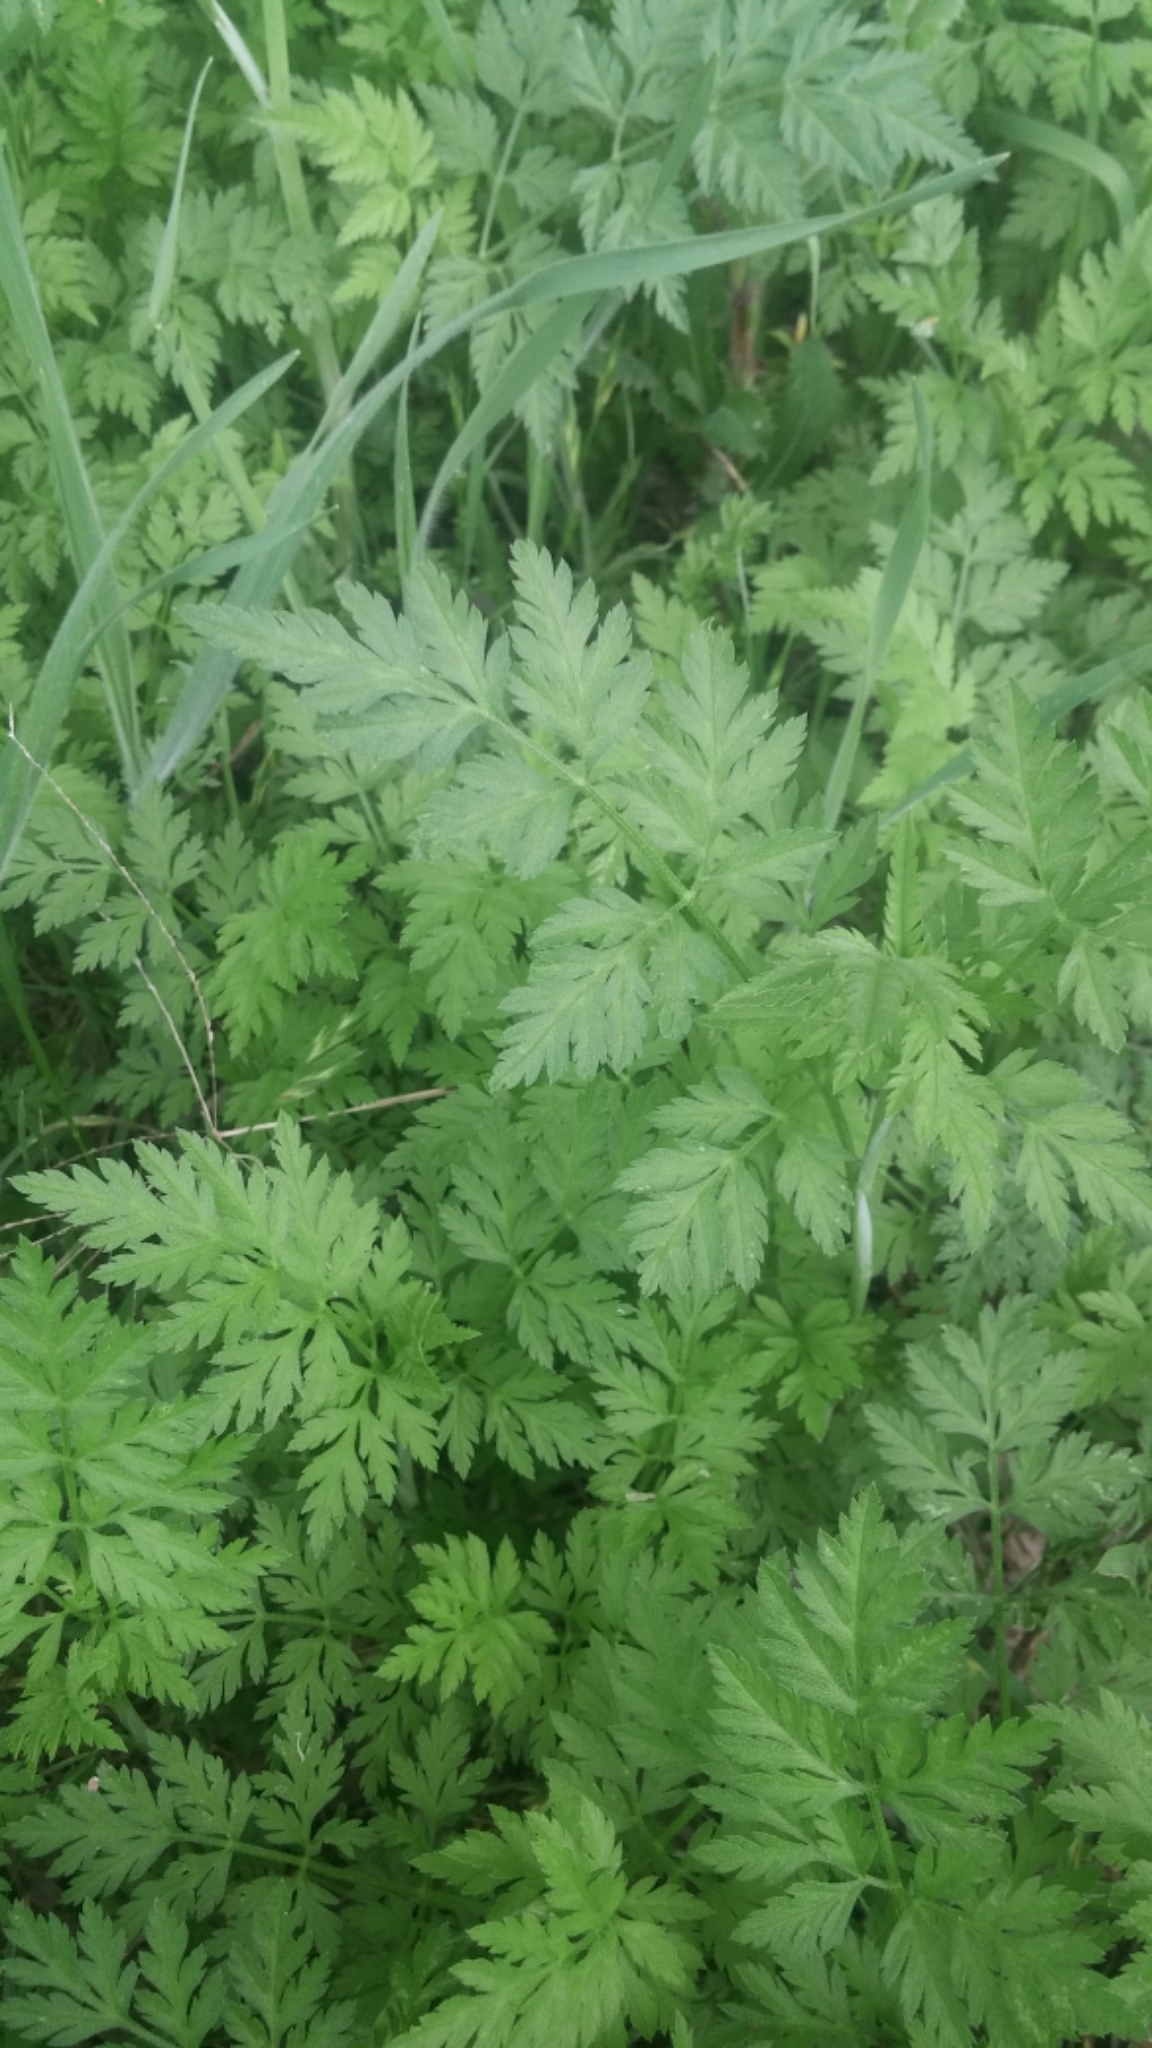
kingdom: Plantae
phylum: Tracheophyta
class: Magnoliopsida
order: Apiales
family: Apiaceae
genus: Torilis
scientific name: Torilis arvensis
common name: Spreading hedge-parsley
